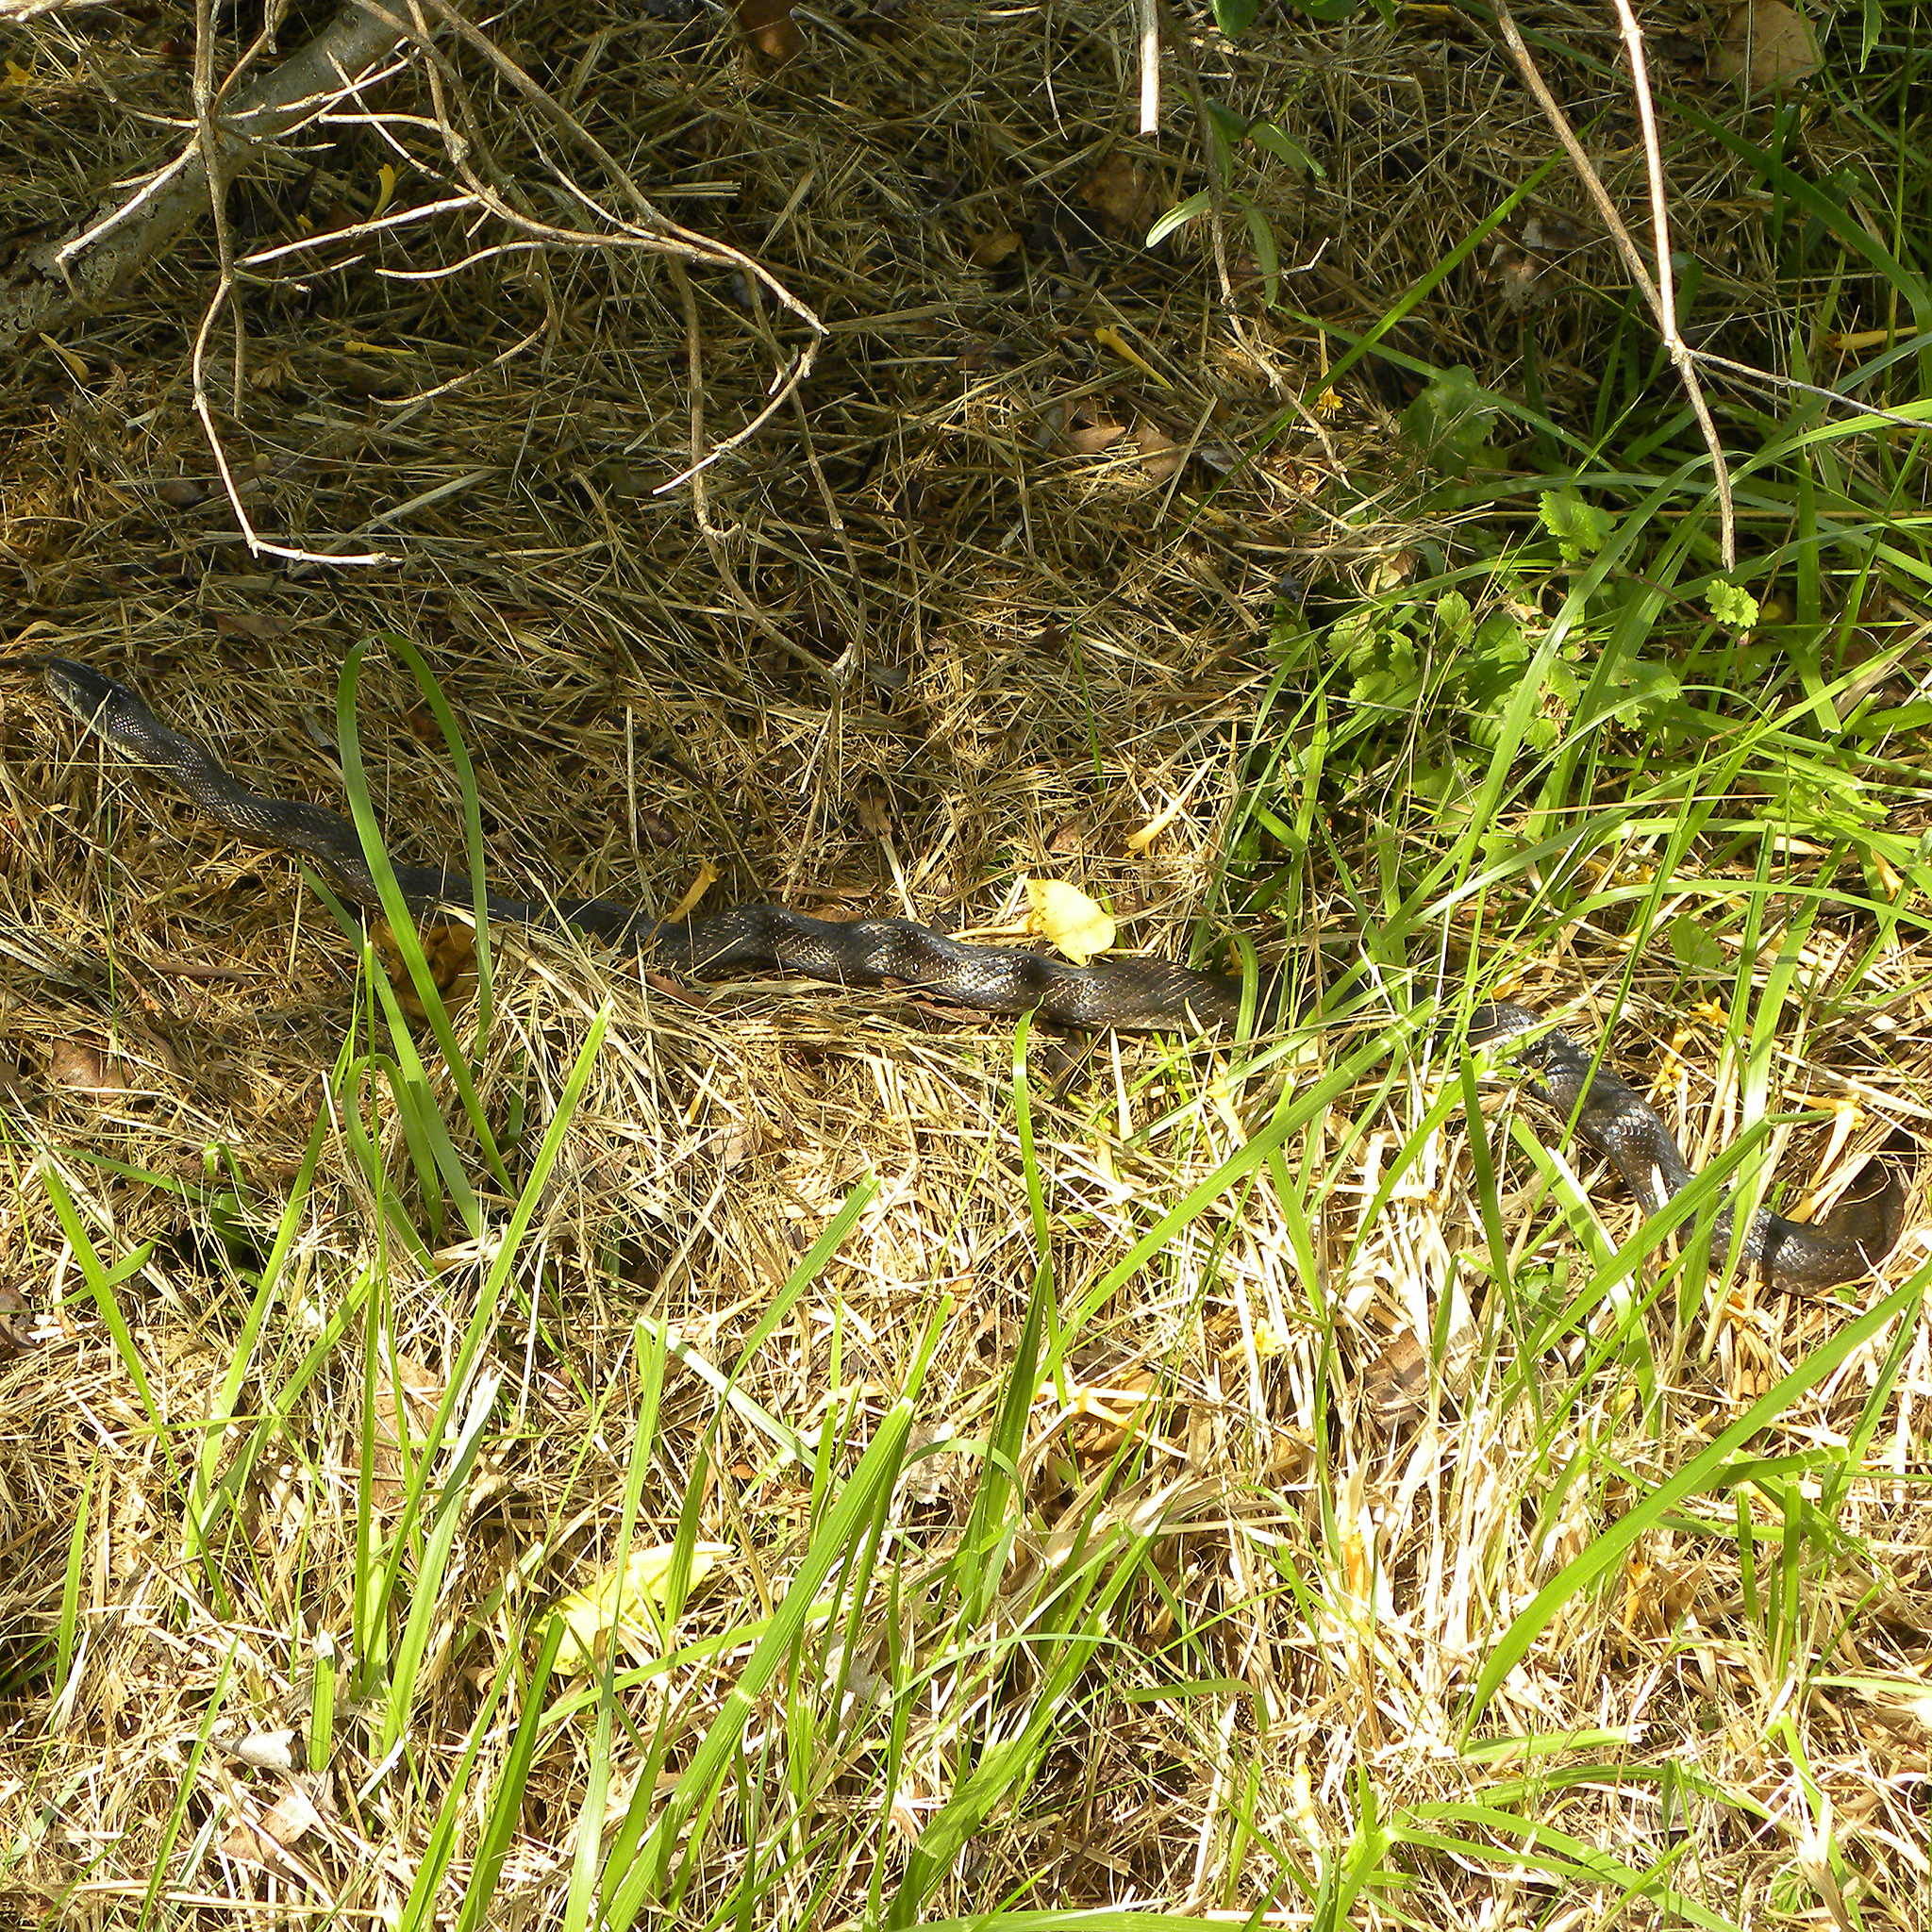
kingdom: Animalia
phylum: Chordata
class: Squamata
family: Colubridae
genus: Pantherophis
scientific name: Pantherophis spiloides
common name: Gray rat snake
